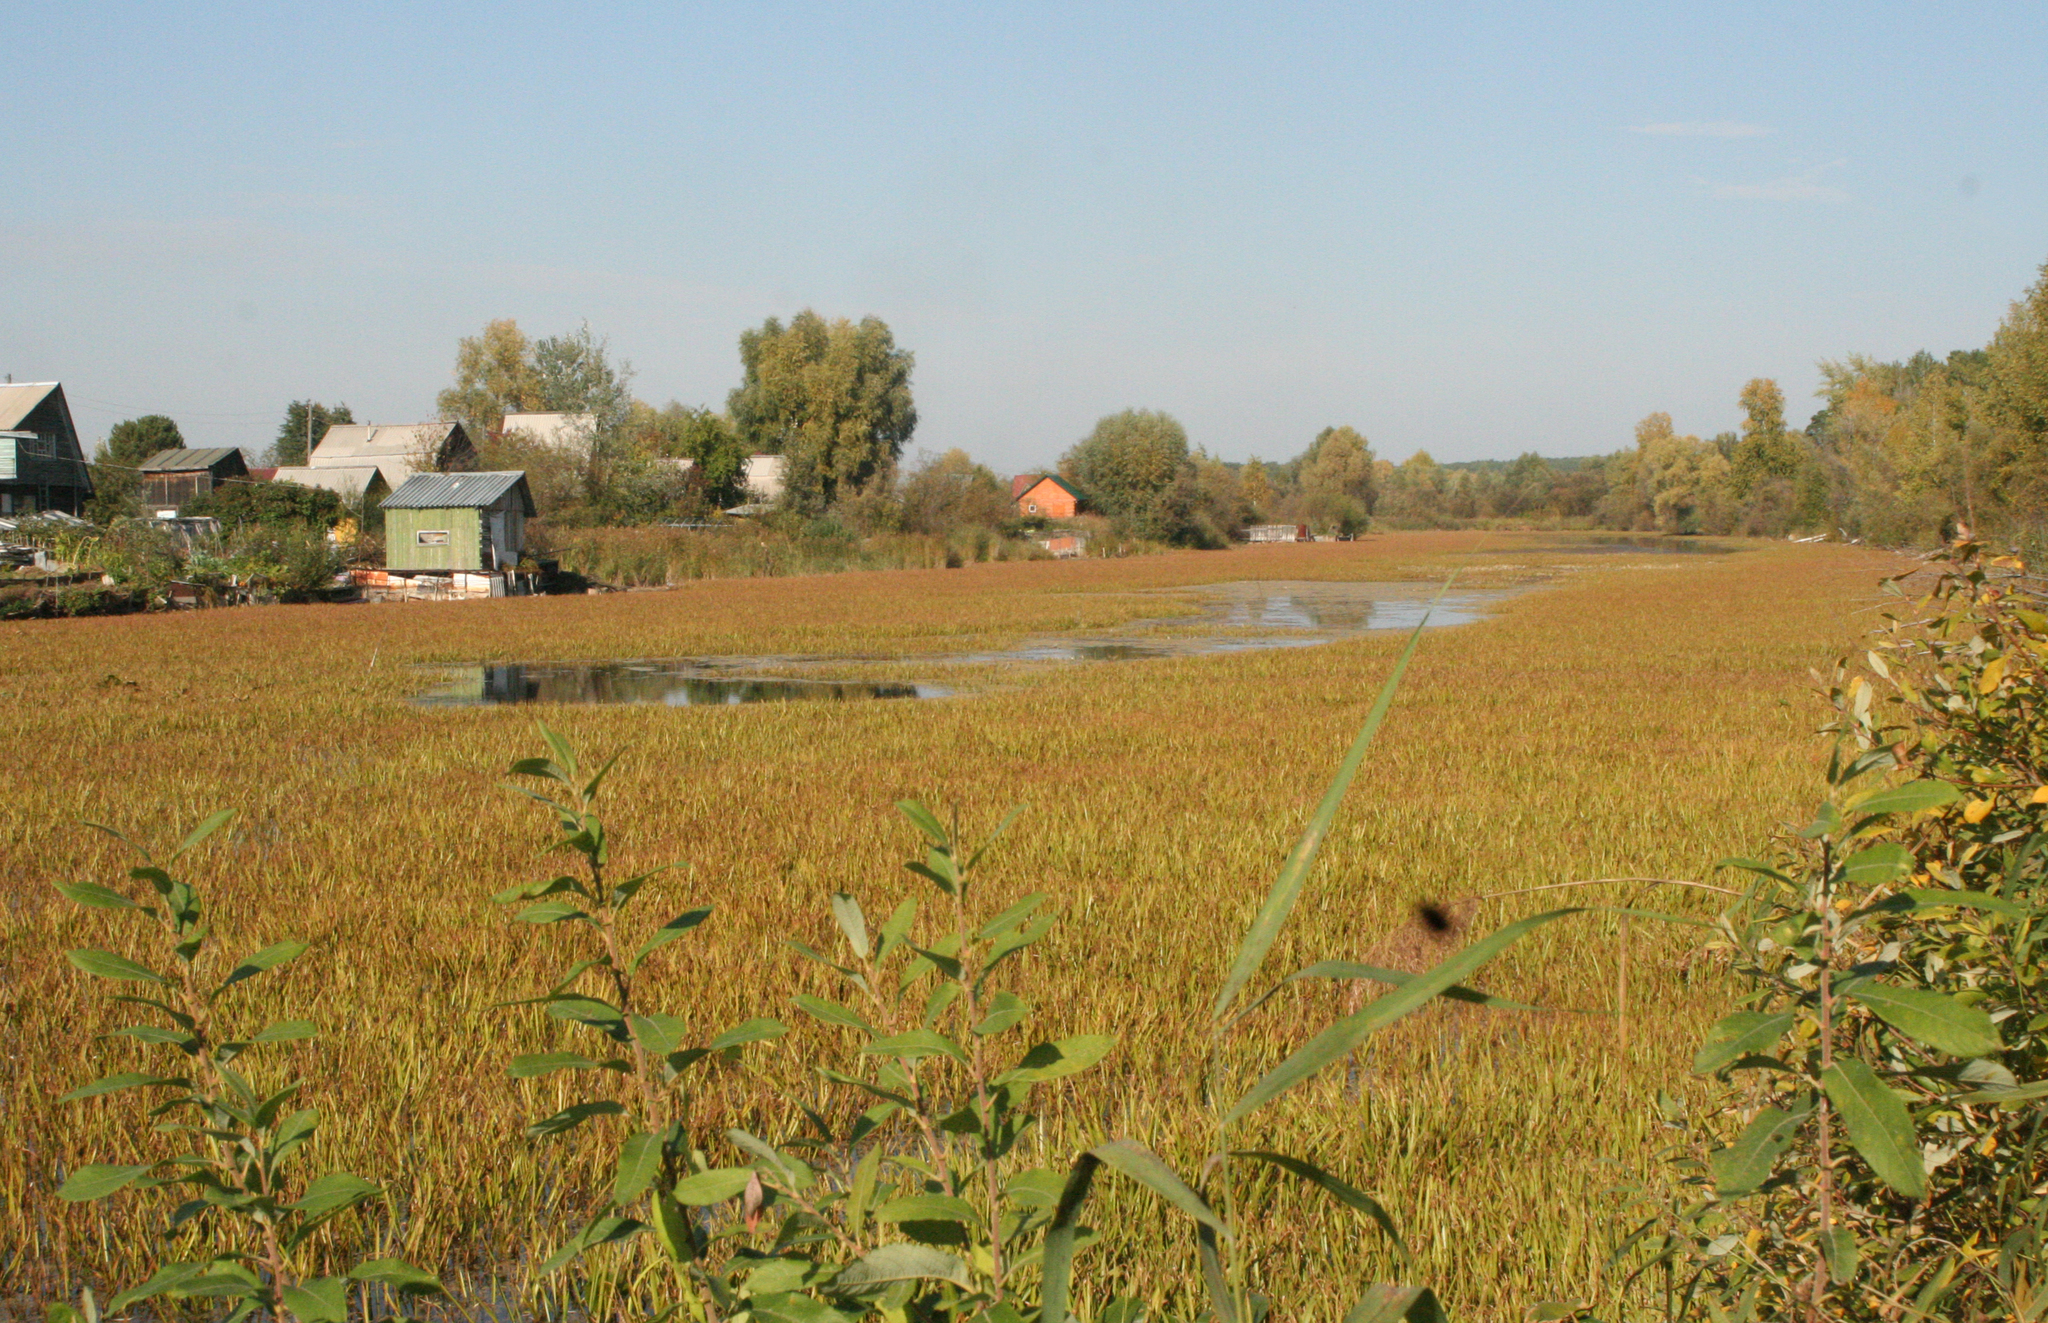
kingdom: Plantae
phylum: Tracheophyta
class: Liliopsida
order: Alismatales
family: Hydrocharitaceae
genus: Stratiotes
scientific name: Stratiotes aloides
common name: Water-soldier
